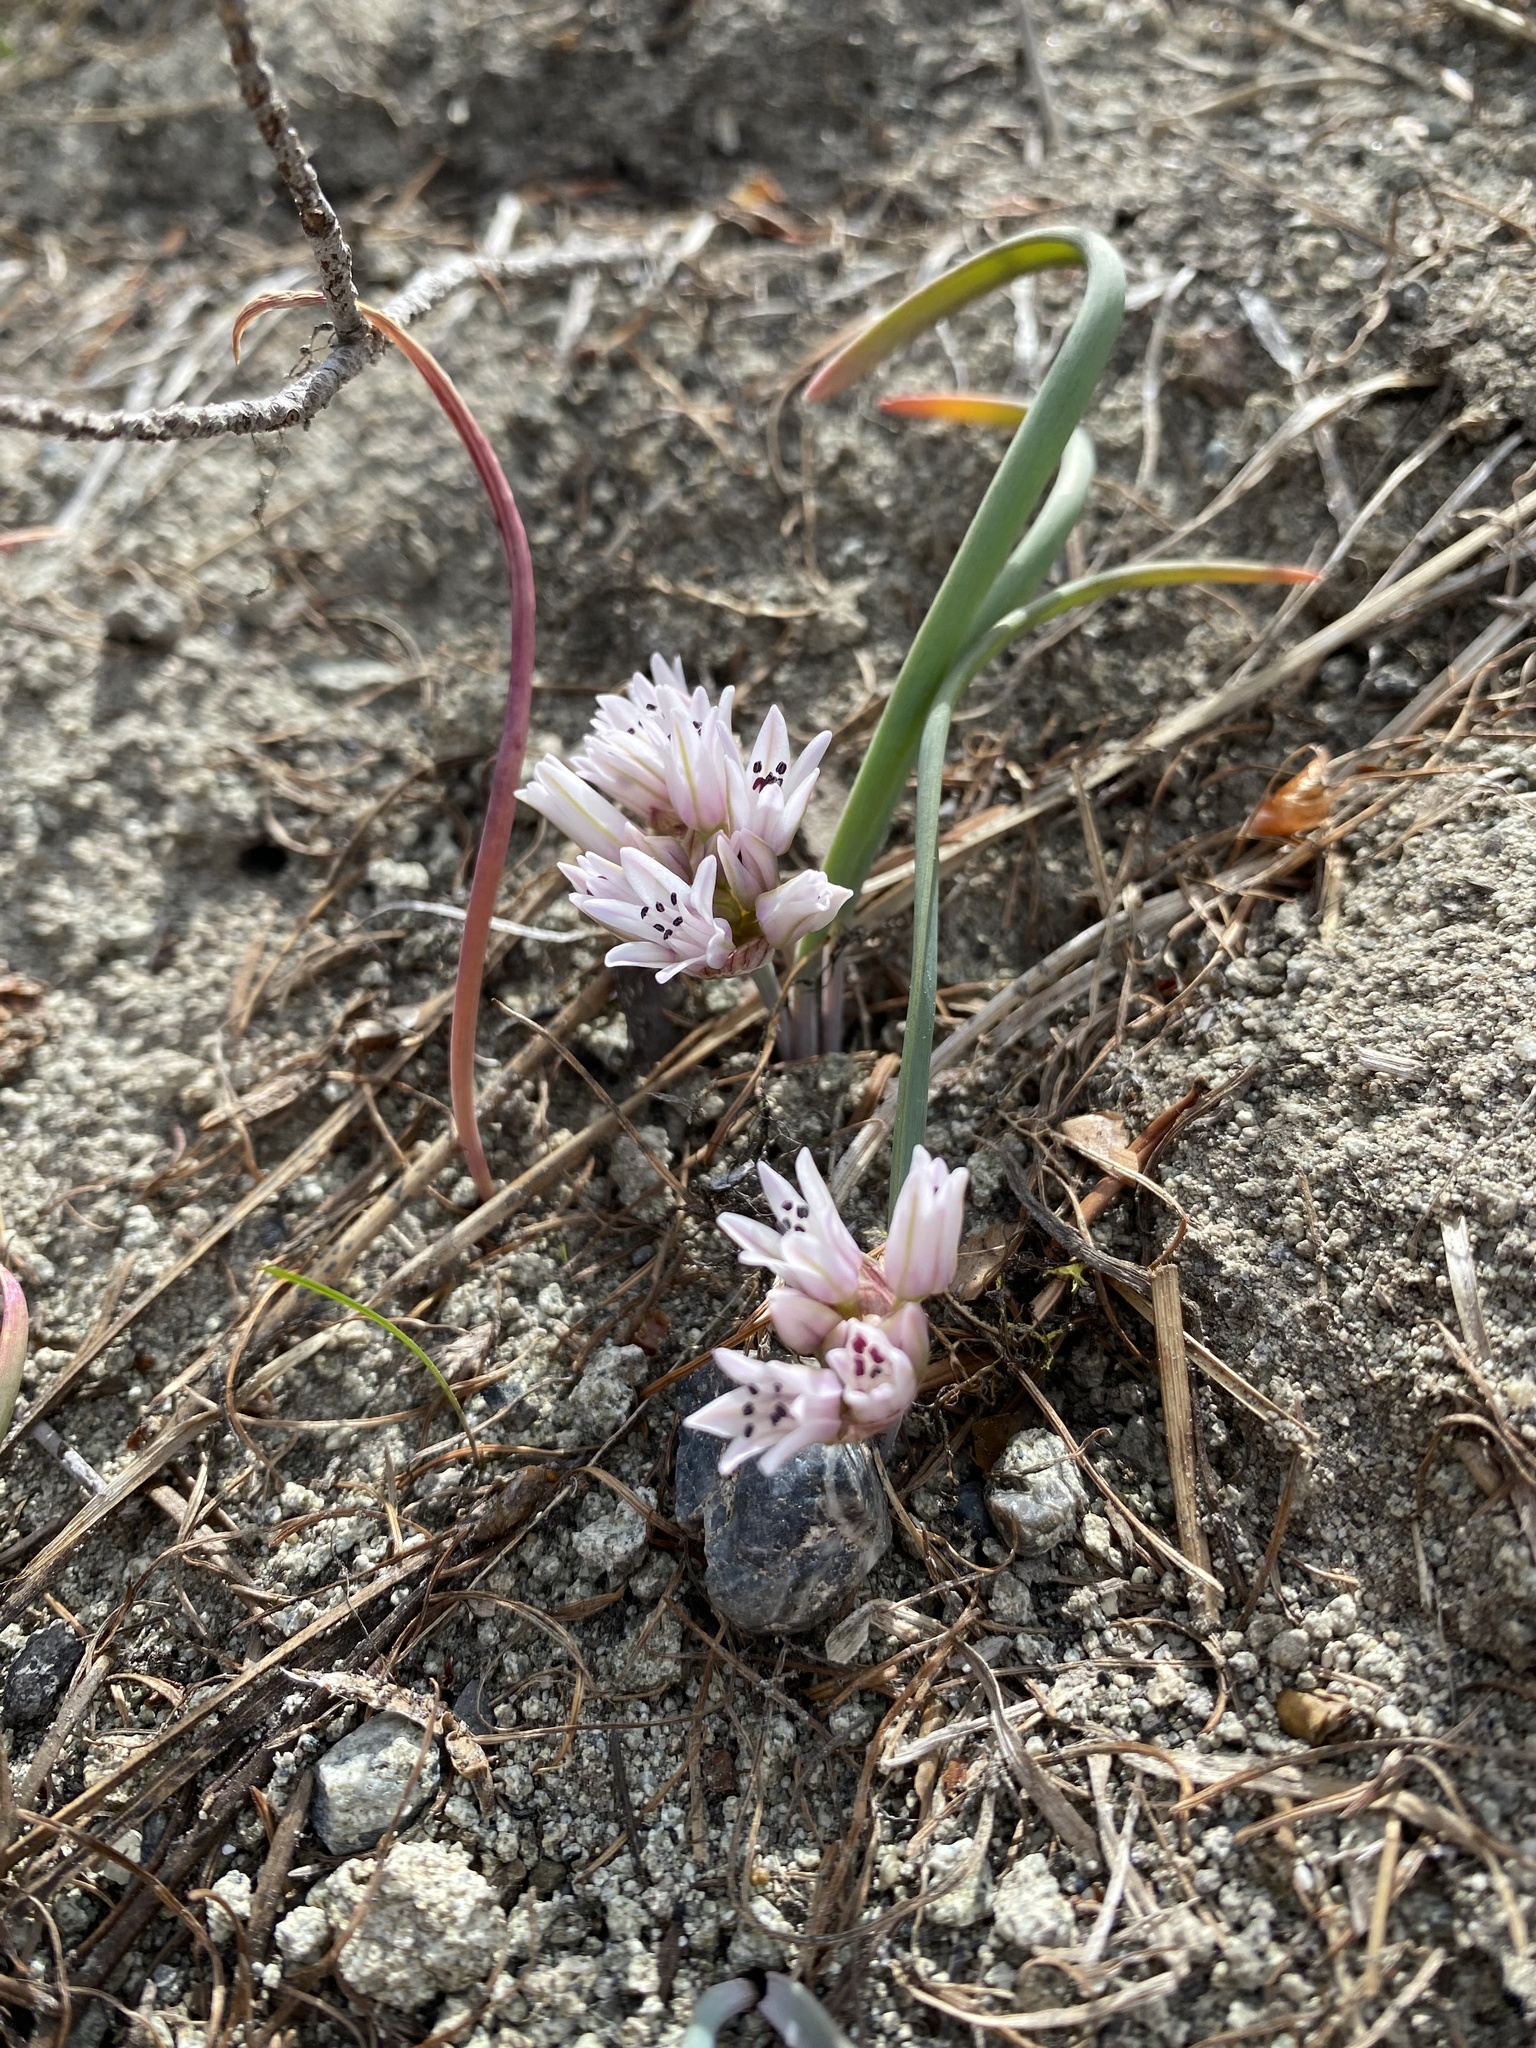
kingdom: Plantae
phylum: Tracheophyta
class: Liliopsida
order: Asparagales
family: Amaryllidaceae
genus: Allium
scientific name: Allium crenulatum
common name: Olympic onion
